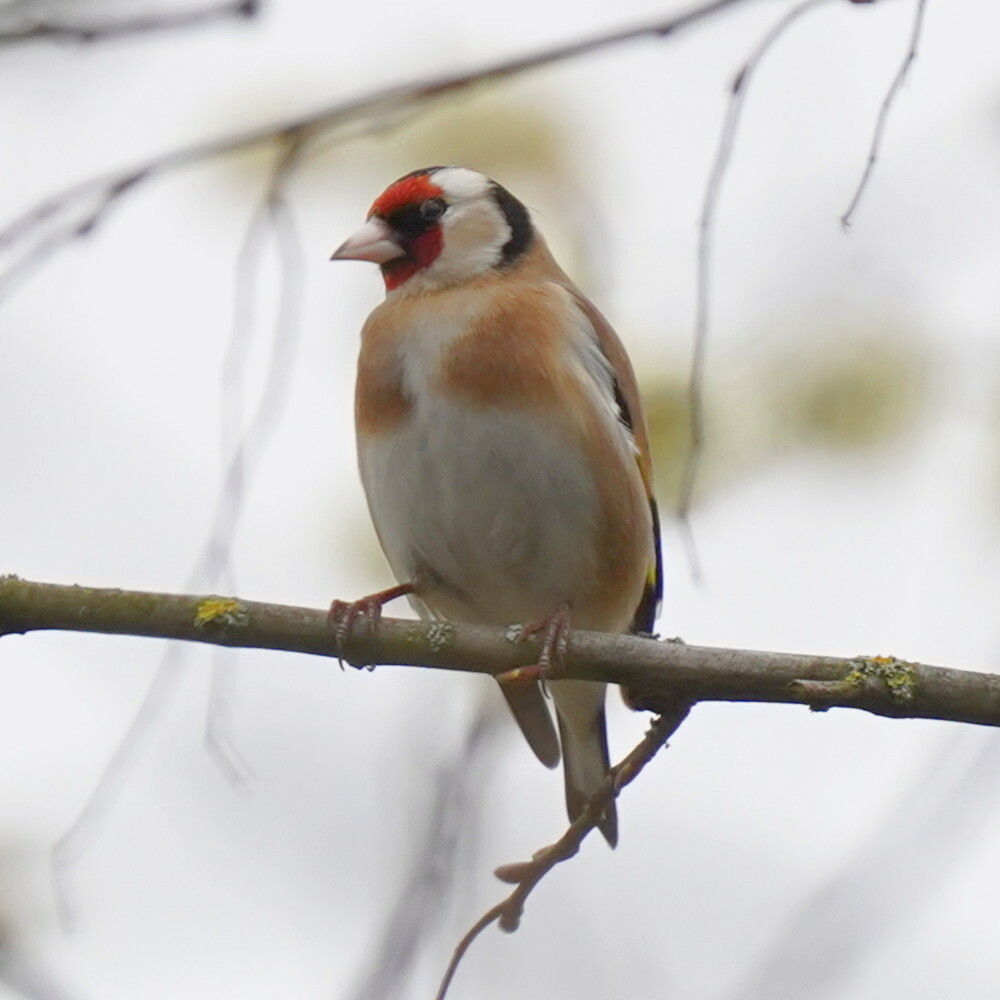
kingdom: Animalia
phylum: Chordata
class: Aves
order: Passeriformes
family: Fringillidae
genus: Carduelis
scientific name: Carduelis carduelis
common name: European goldfinch
